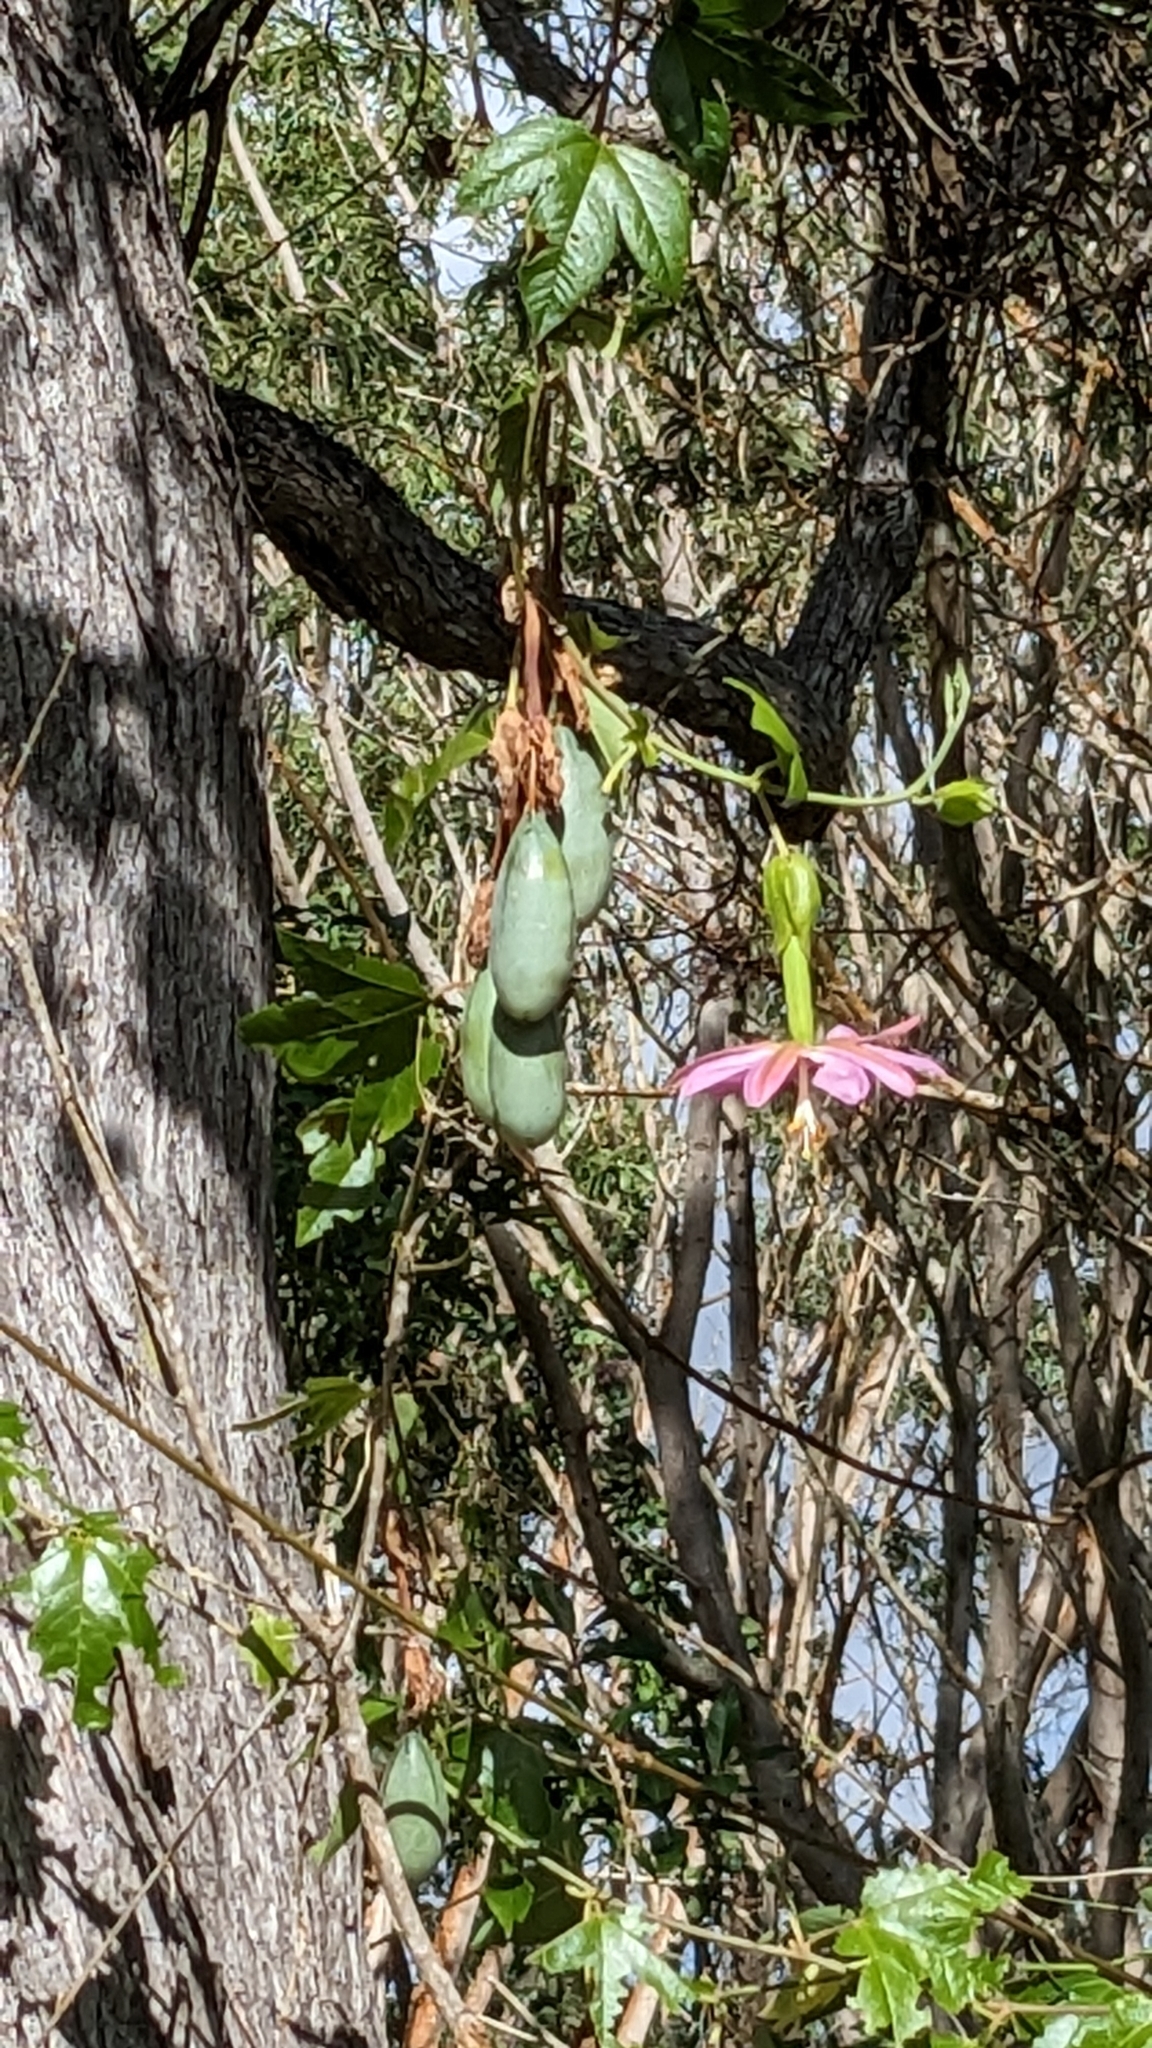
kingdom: Plantae
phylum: Tracheophyta
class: Magnoliopsida
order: Malpighiales
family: Passifloraceae
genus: Passiflora
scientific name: Passiflora tarminiana
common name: Banana poka
